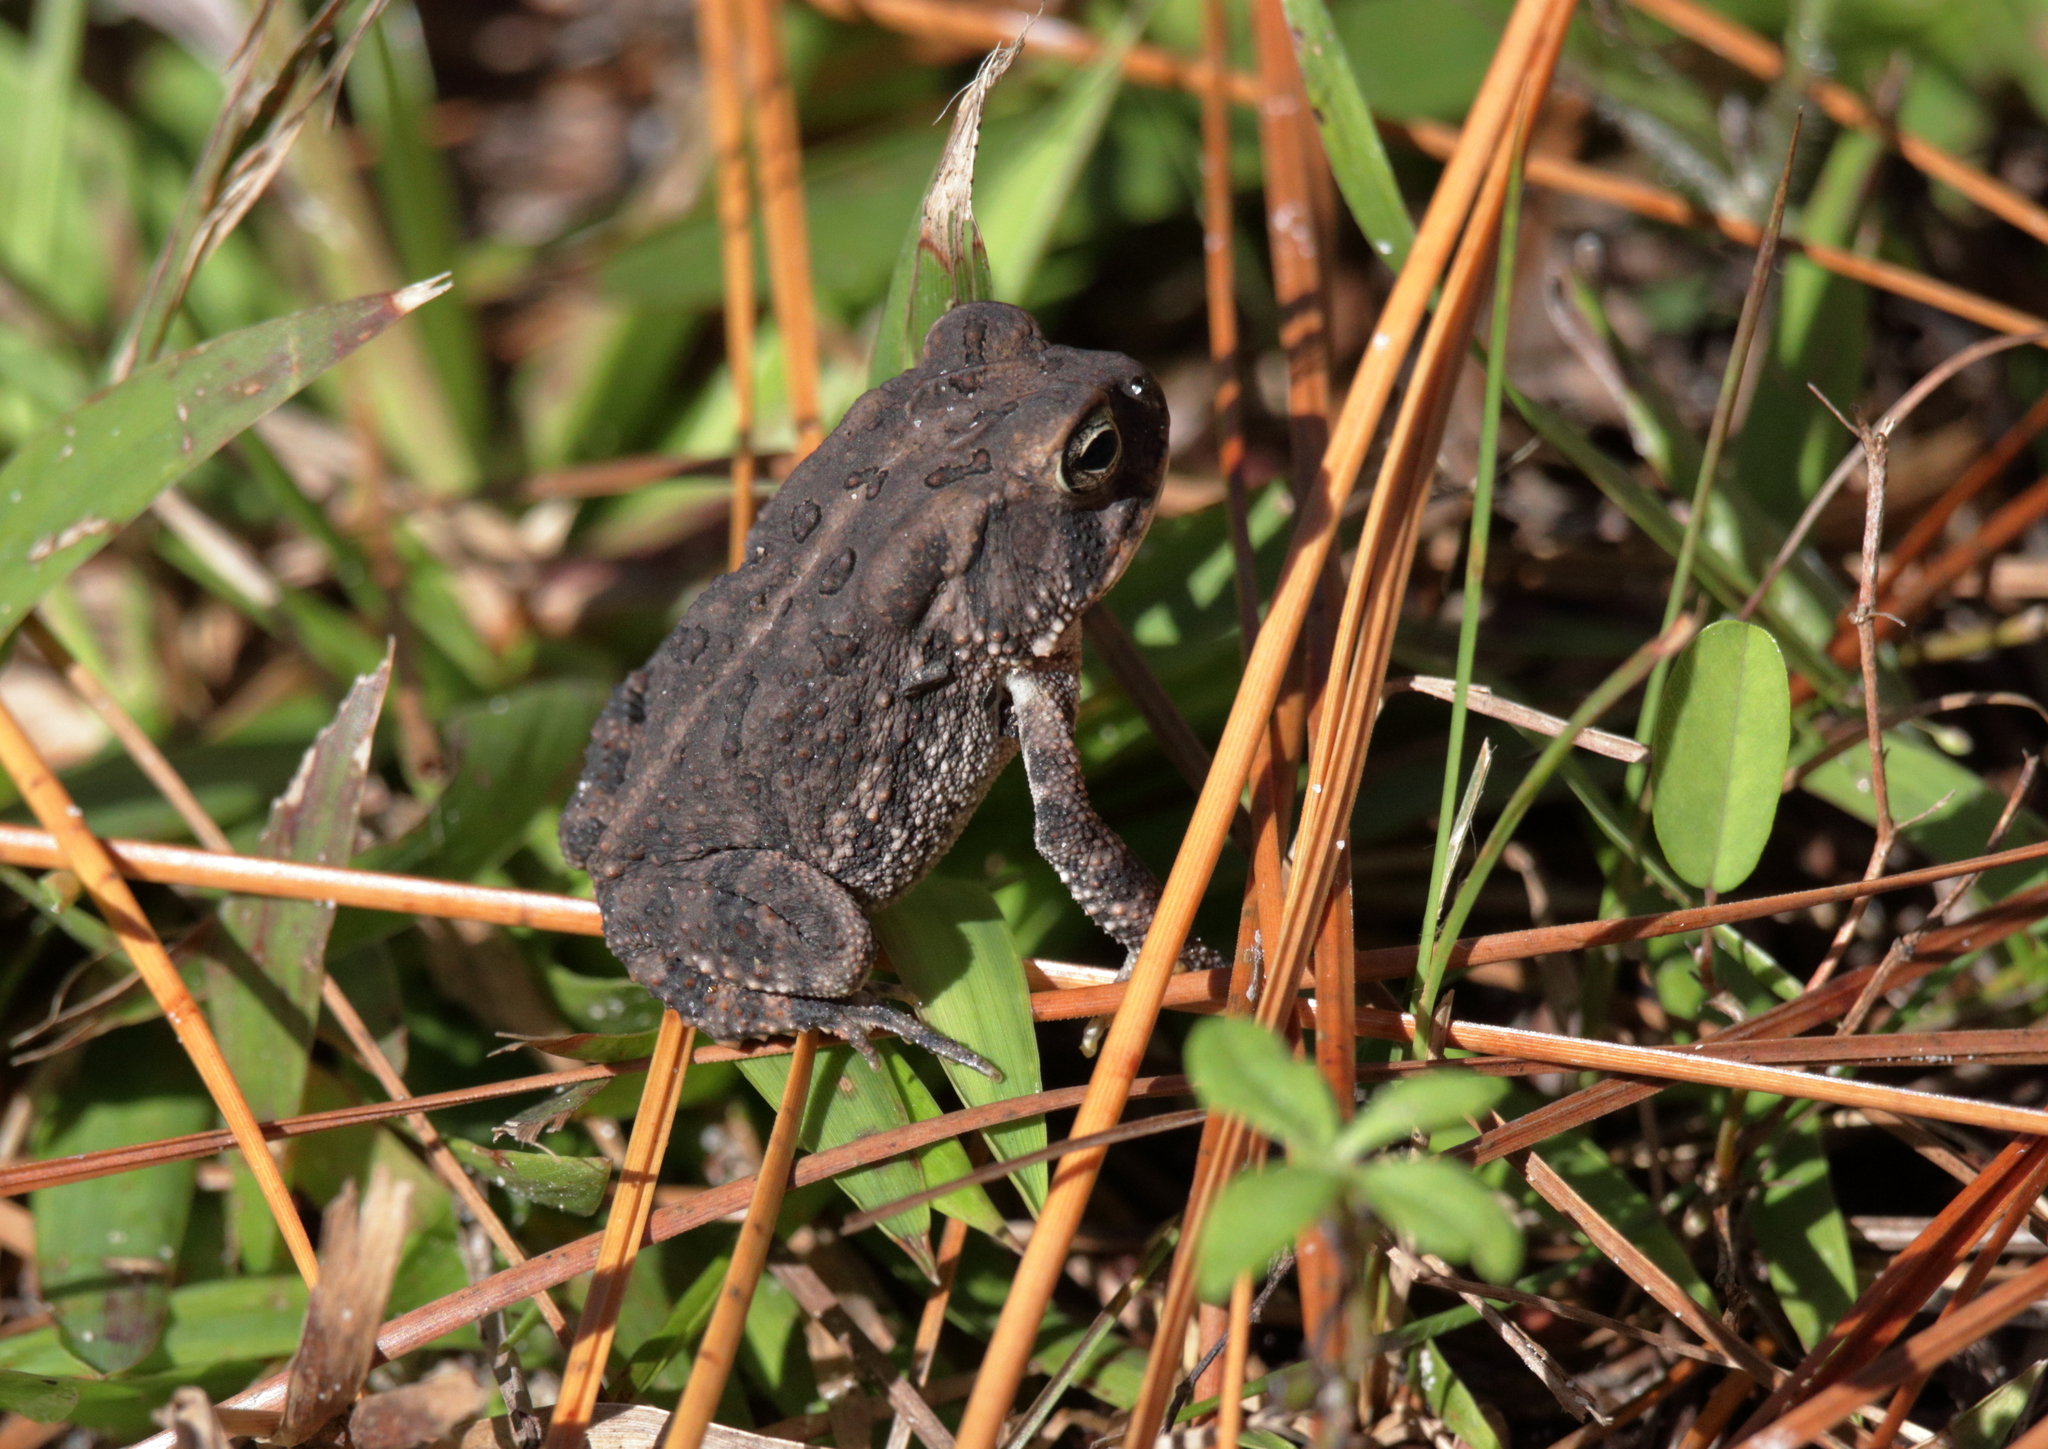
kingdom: Animalia
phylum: Chordata
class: Amphibia
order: Anura
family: Bufonidae
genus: Anaxyrus
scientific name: Anaxyrus terrestris
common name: Southern toad
